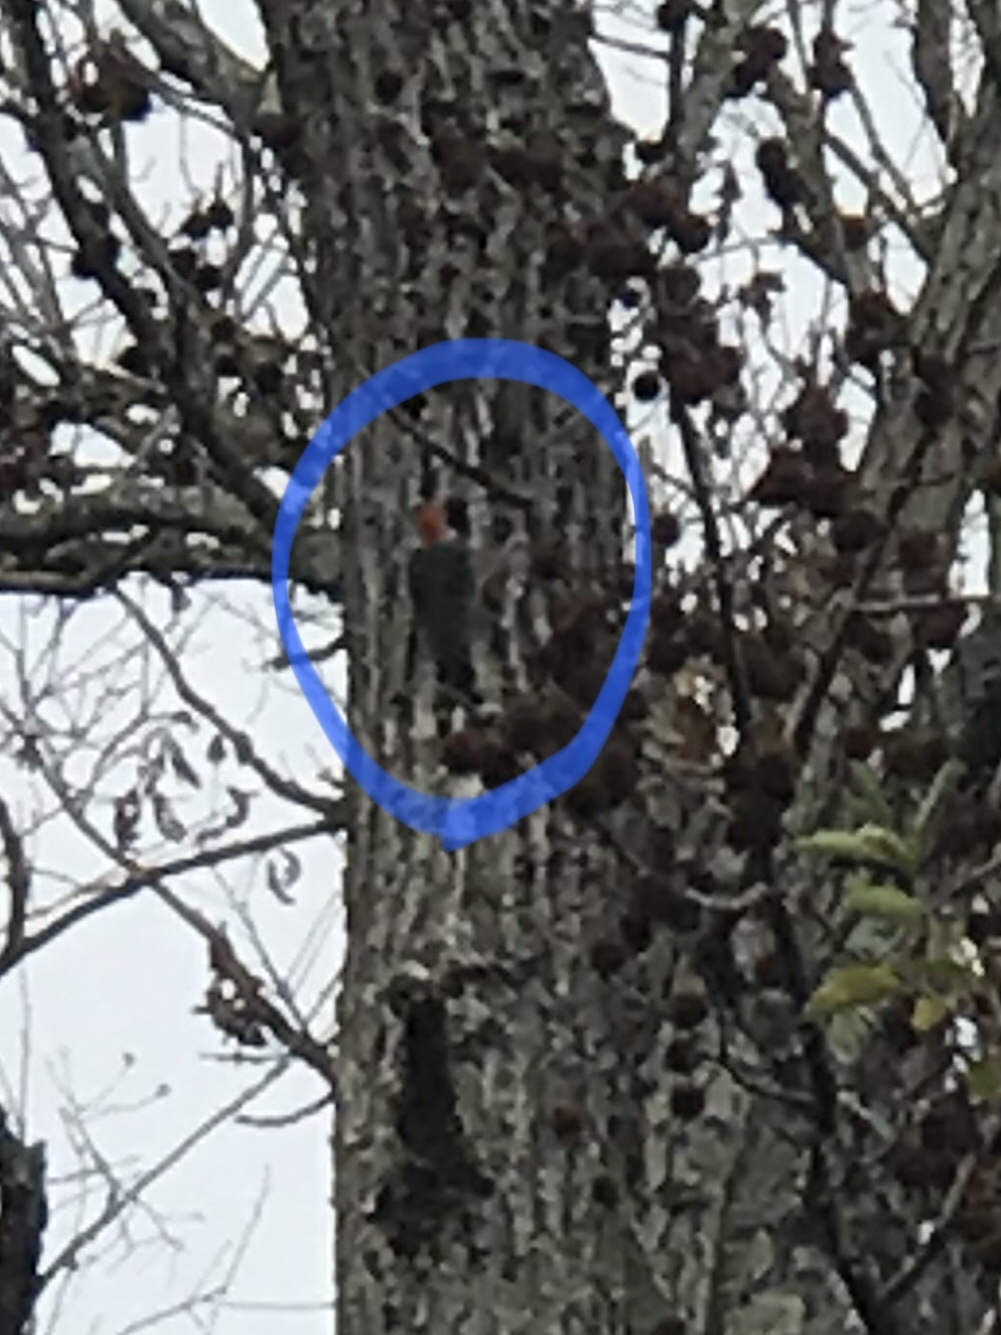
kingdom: Animalia
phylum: Chordata
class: Aves
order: Piciformes
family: Picidae
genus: Dryocopus
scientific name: Dryocopus pileatus
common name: Pileated woodpecker
